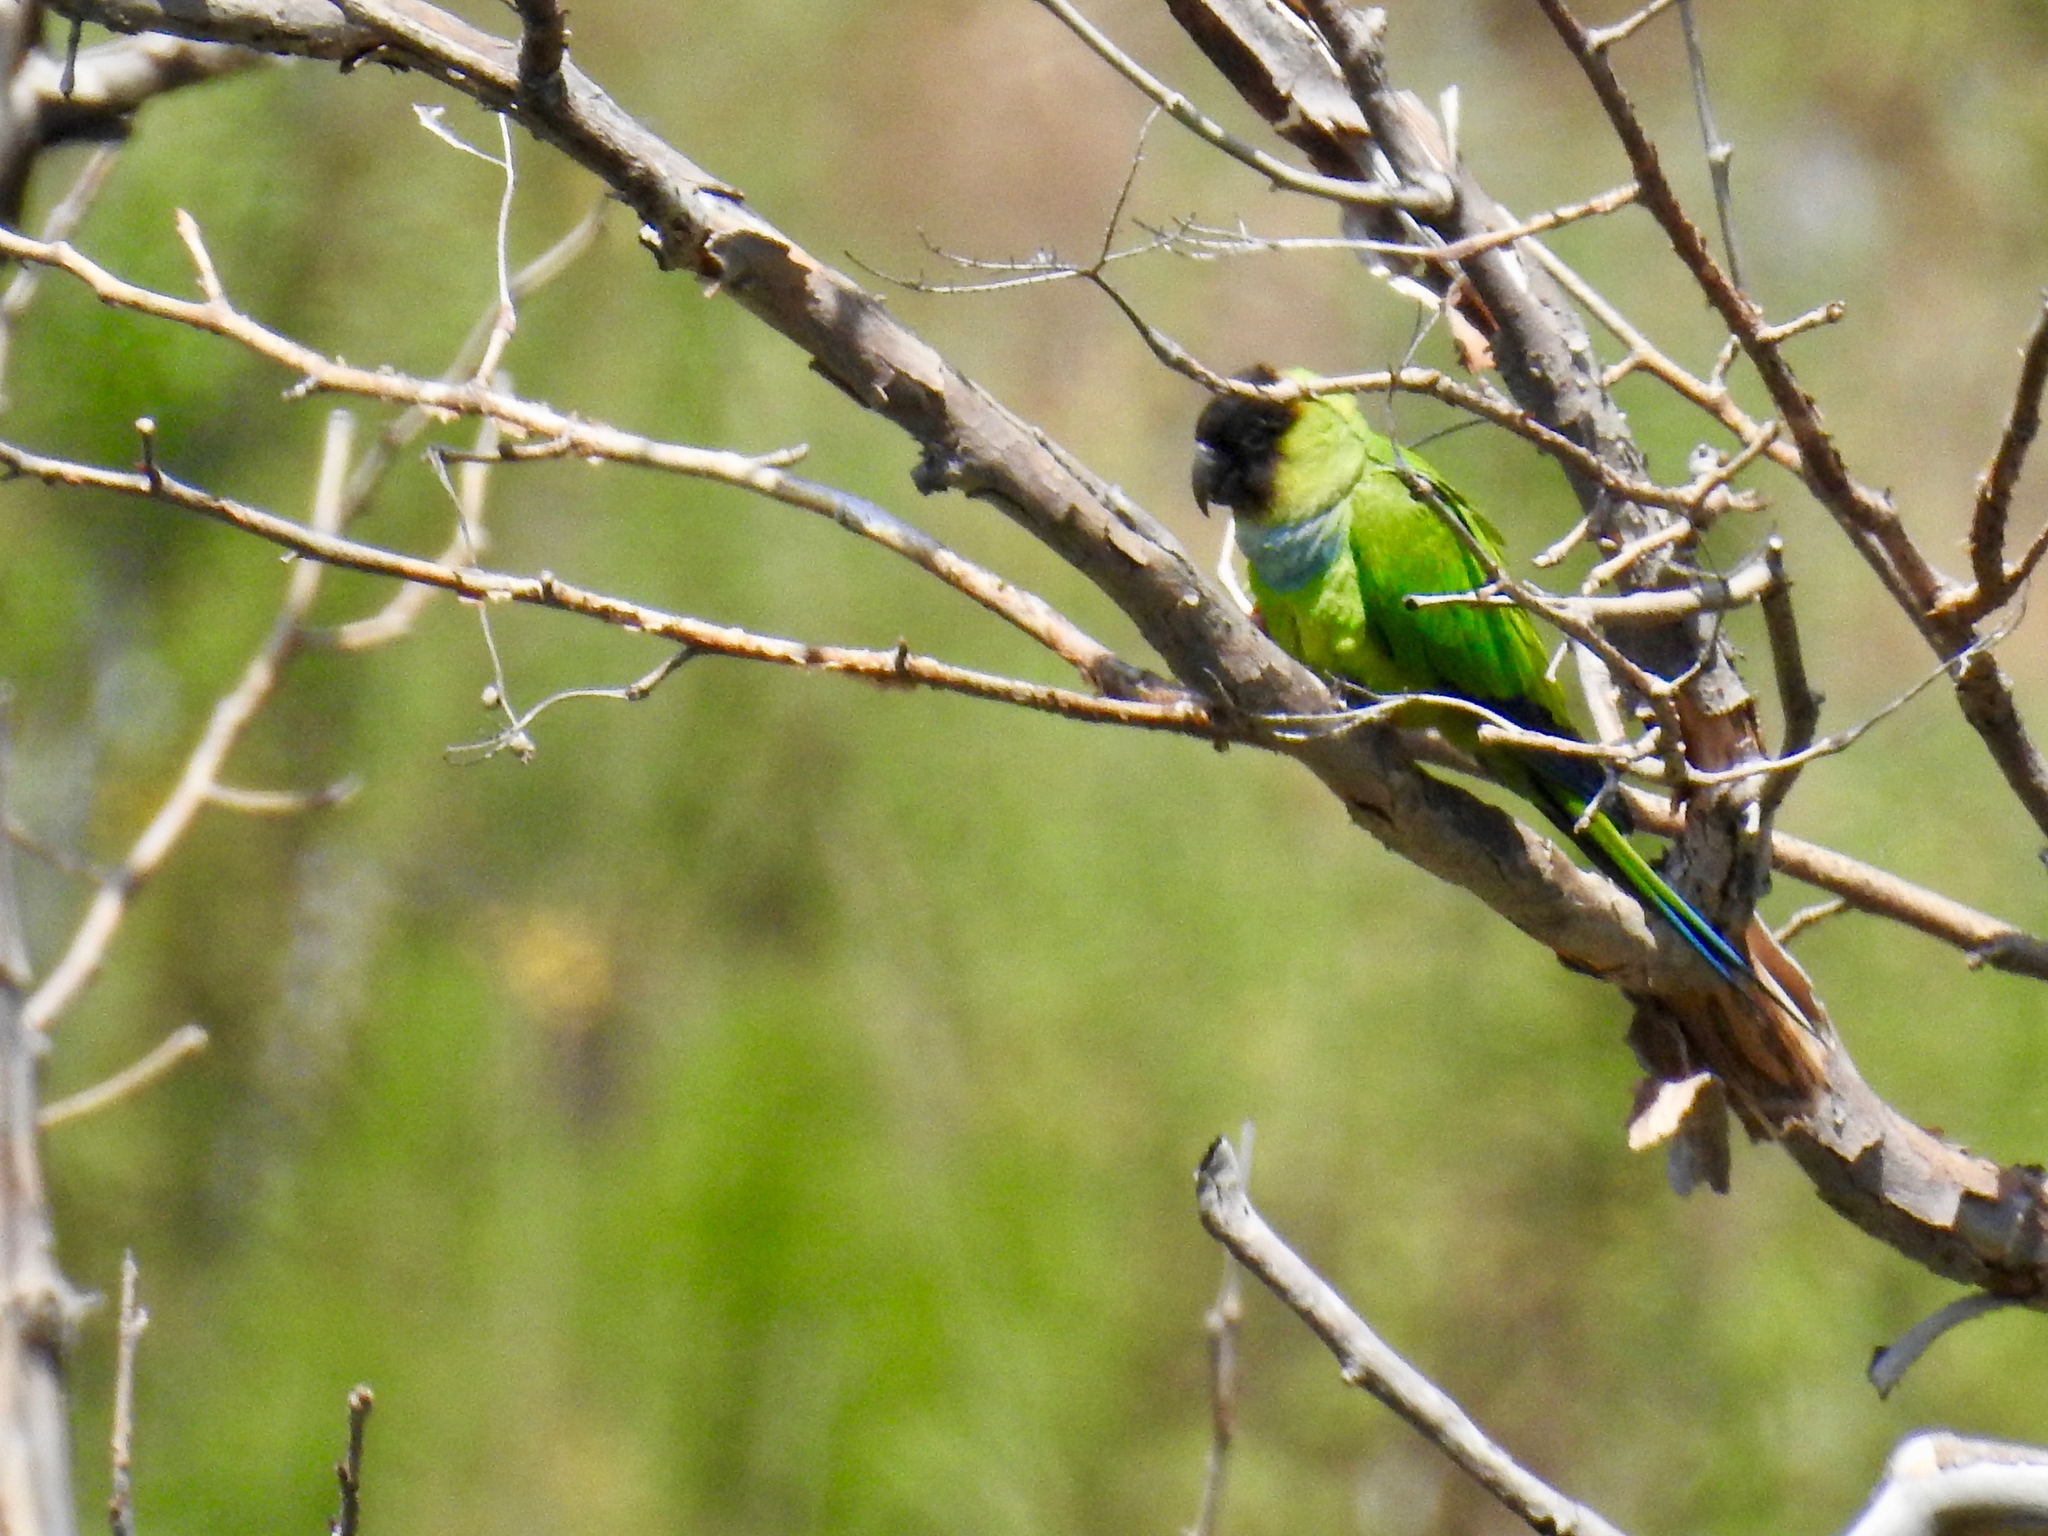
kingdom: Animalia
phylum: Chordata
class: Aves
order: Psittaciformes
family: Psittacidae
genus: Nandayus
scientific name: Nandayus nenday
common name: Nanday parakeet
